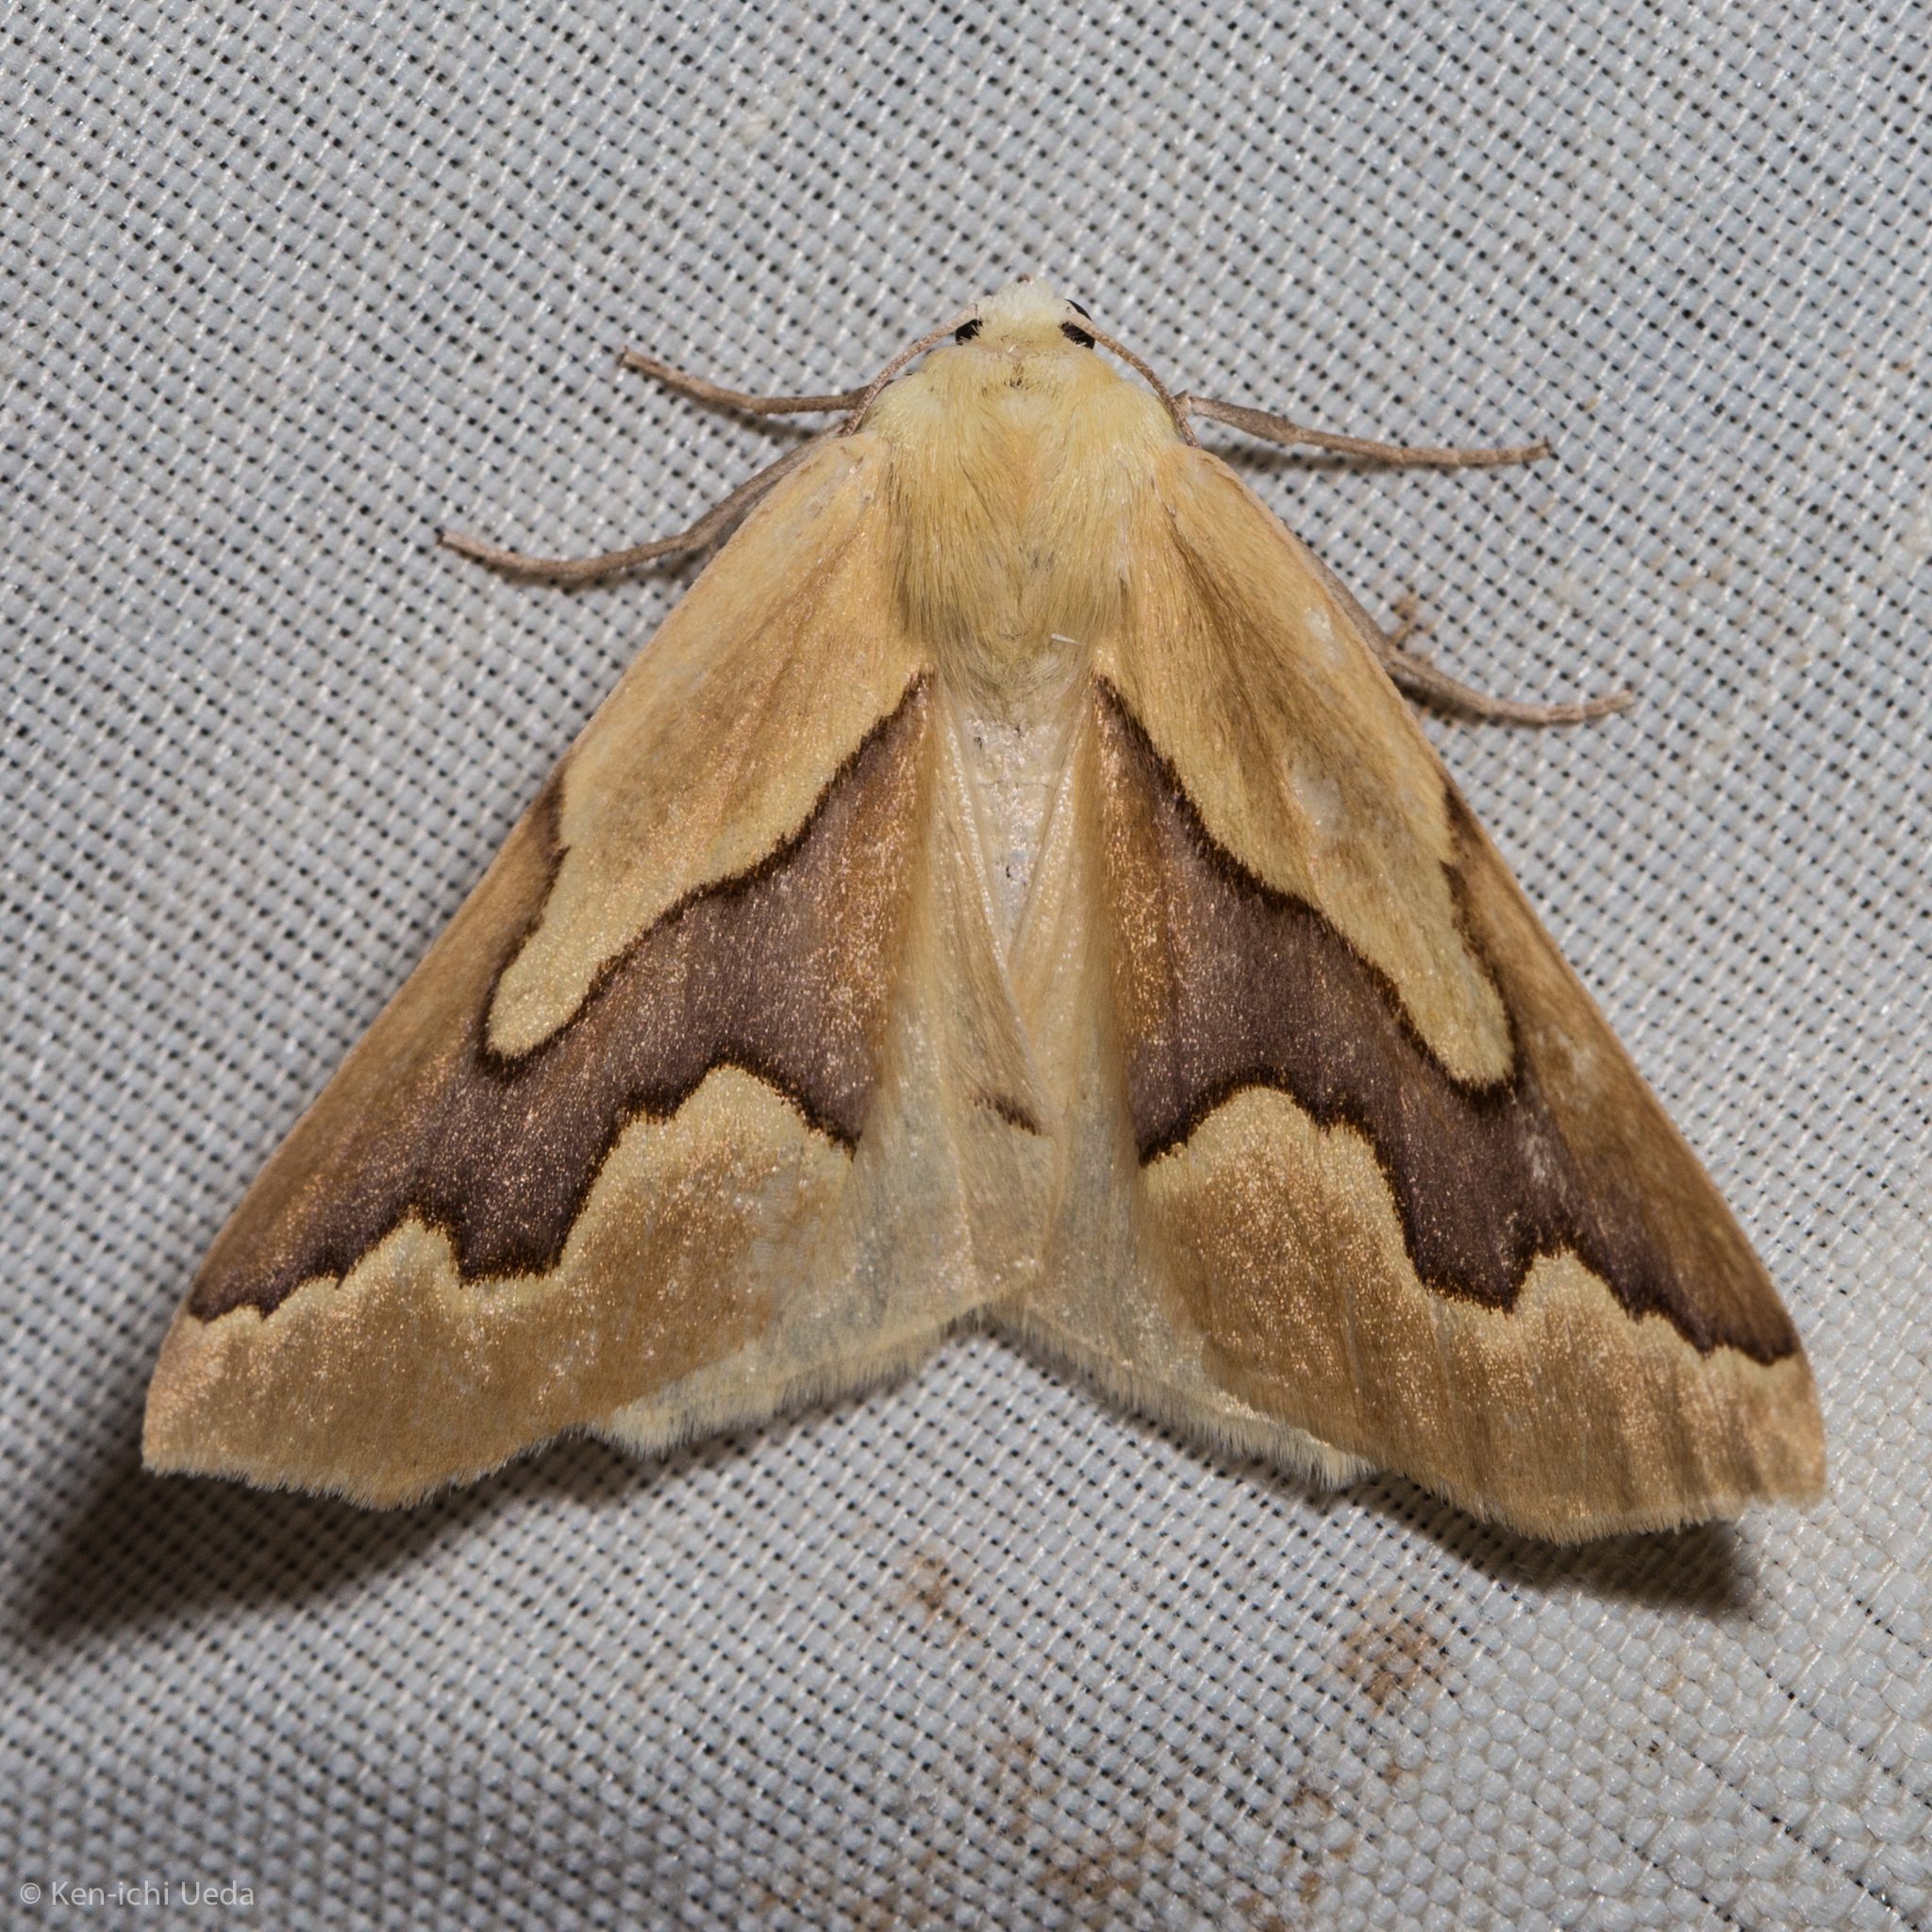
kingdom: Animalia
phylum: Arthropoda
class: Insecta
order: Lepidoptera
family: Geometridae
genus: Sabulodes
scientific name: Sabulodes edwardsata
